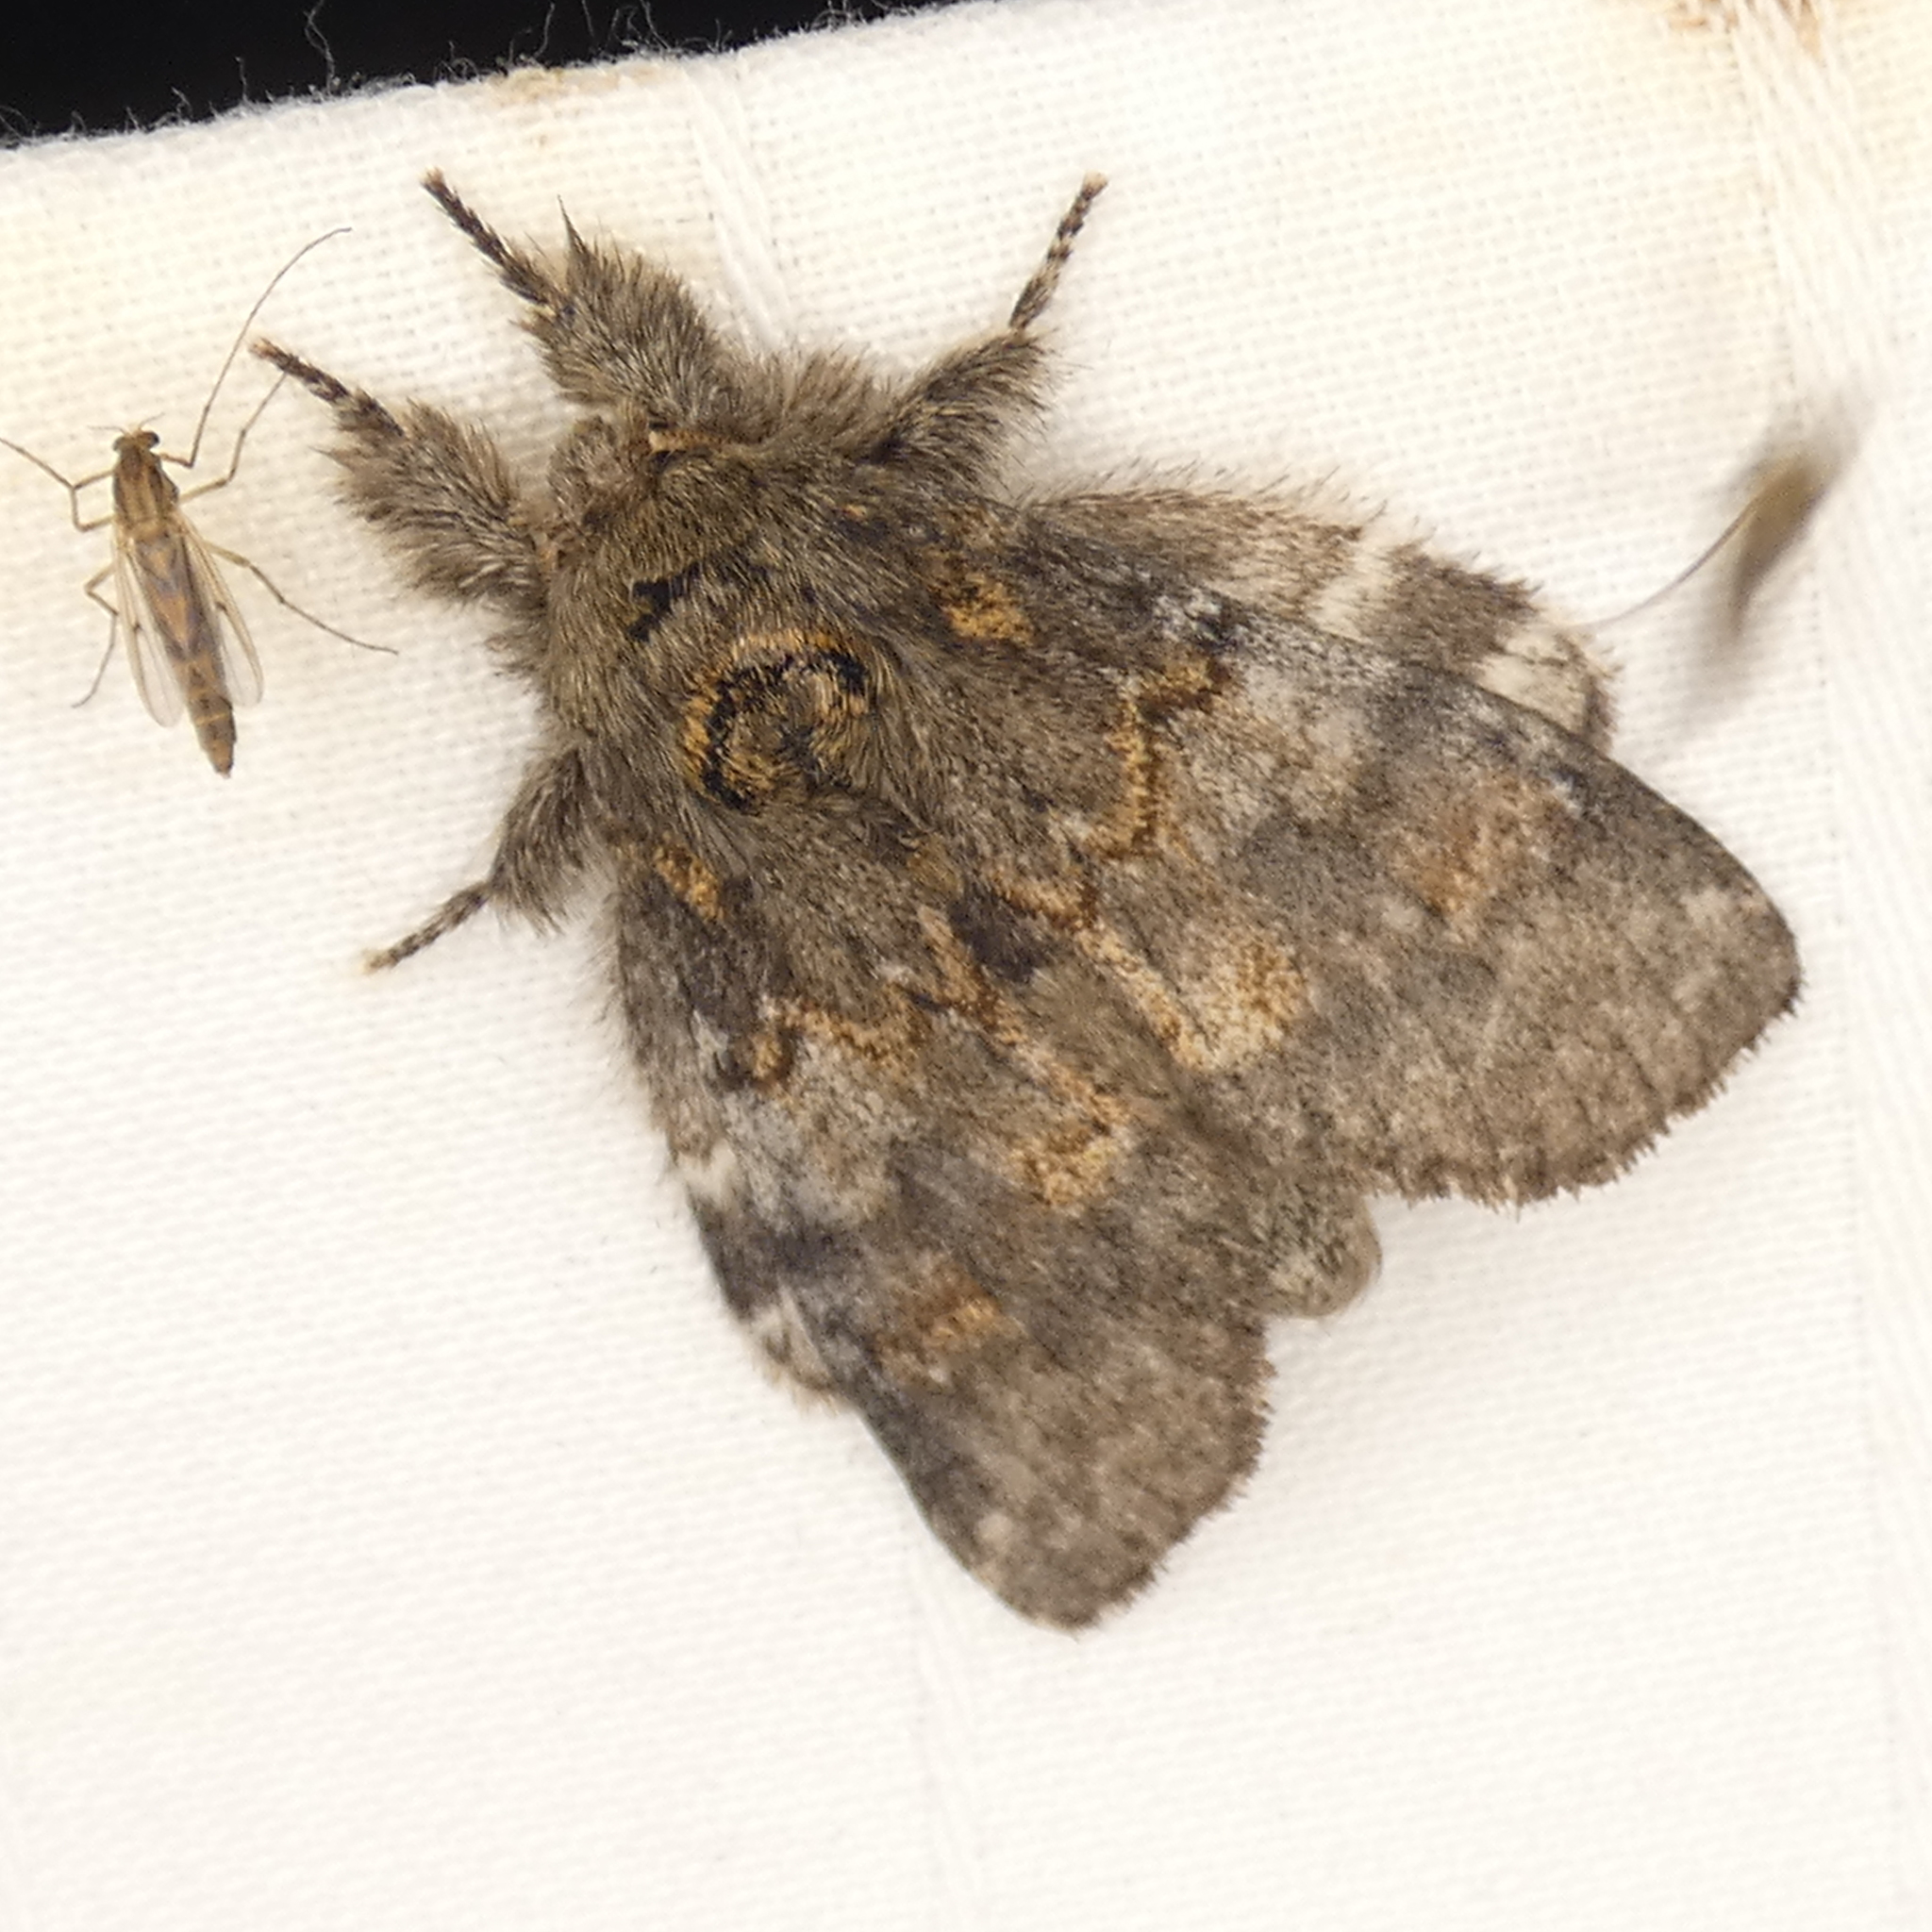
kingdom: Animalia
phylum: Arthropoda
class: Insecta
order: Lepidoptera
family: Notodontidae
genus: Peridea
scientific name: Peridea angulosa
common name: Angulose prominent
